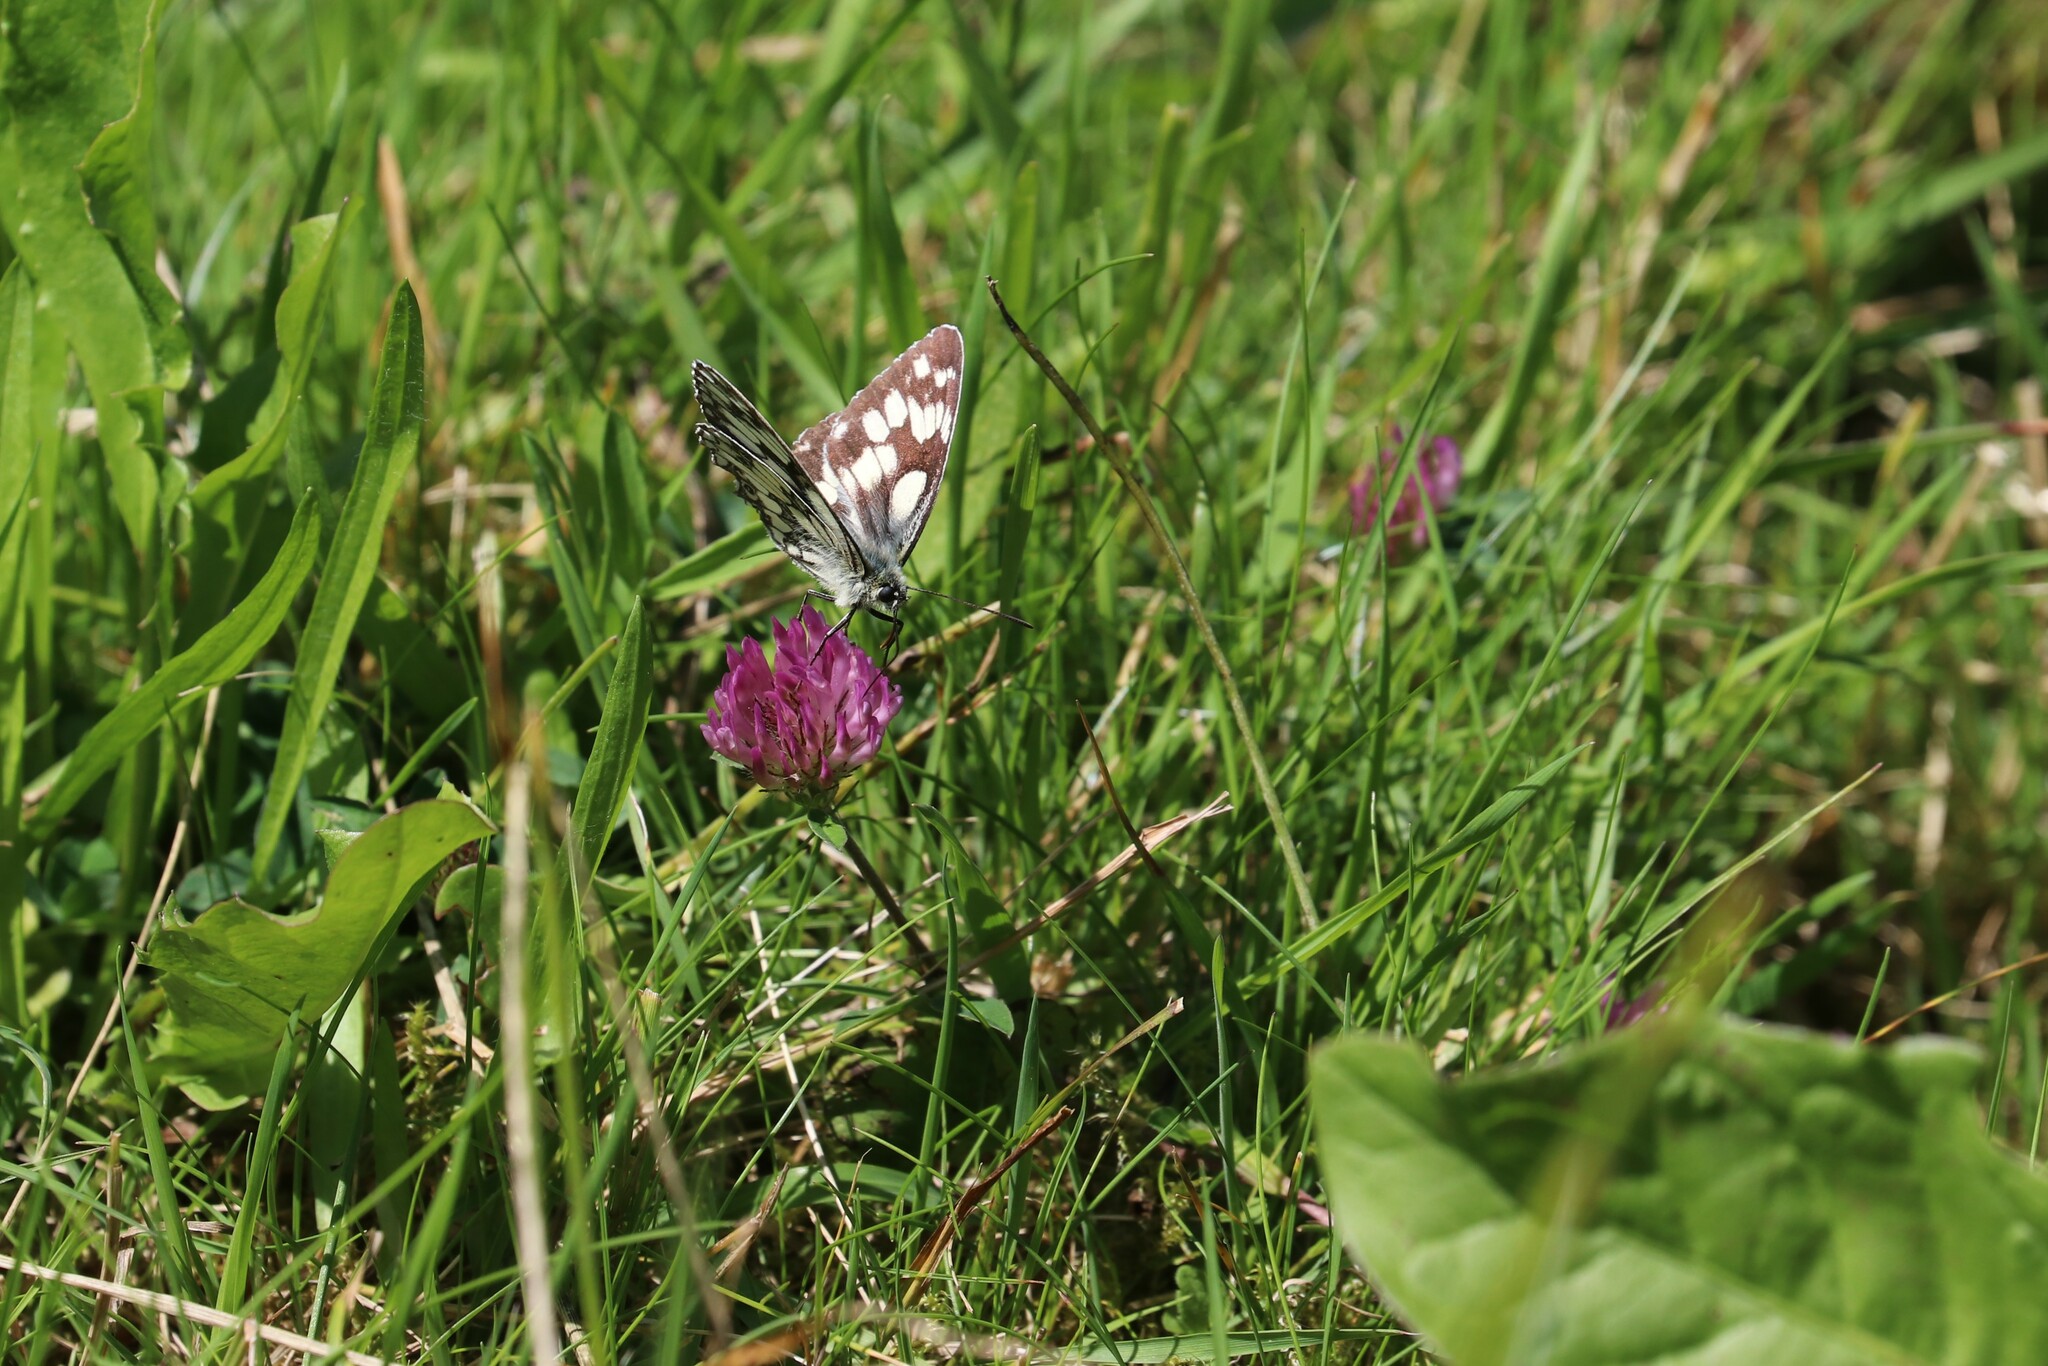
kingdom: Animalia
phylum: Arthropoda
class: Insecta
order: Lepidoptera
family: Nymphalidae
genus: Melanargia
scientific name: Melanargia galathea
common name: Marbled white
